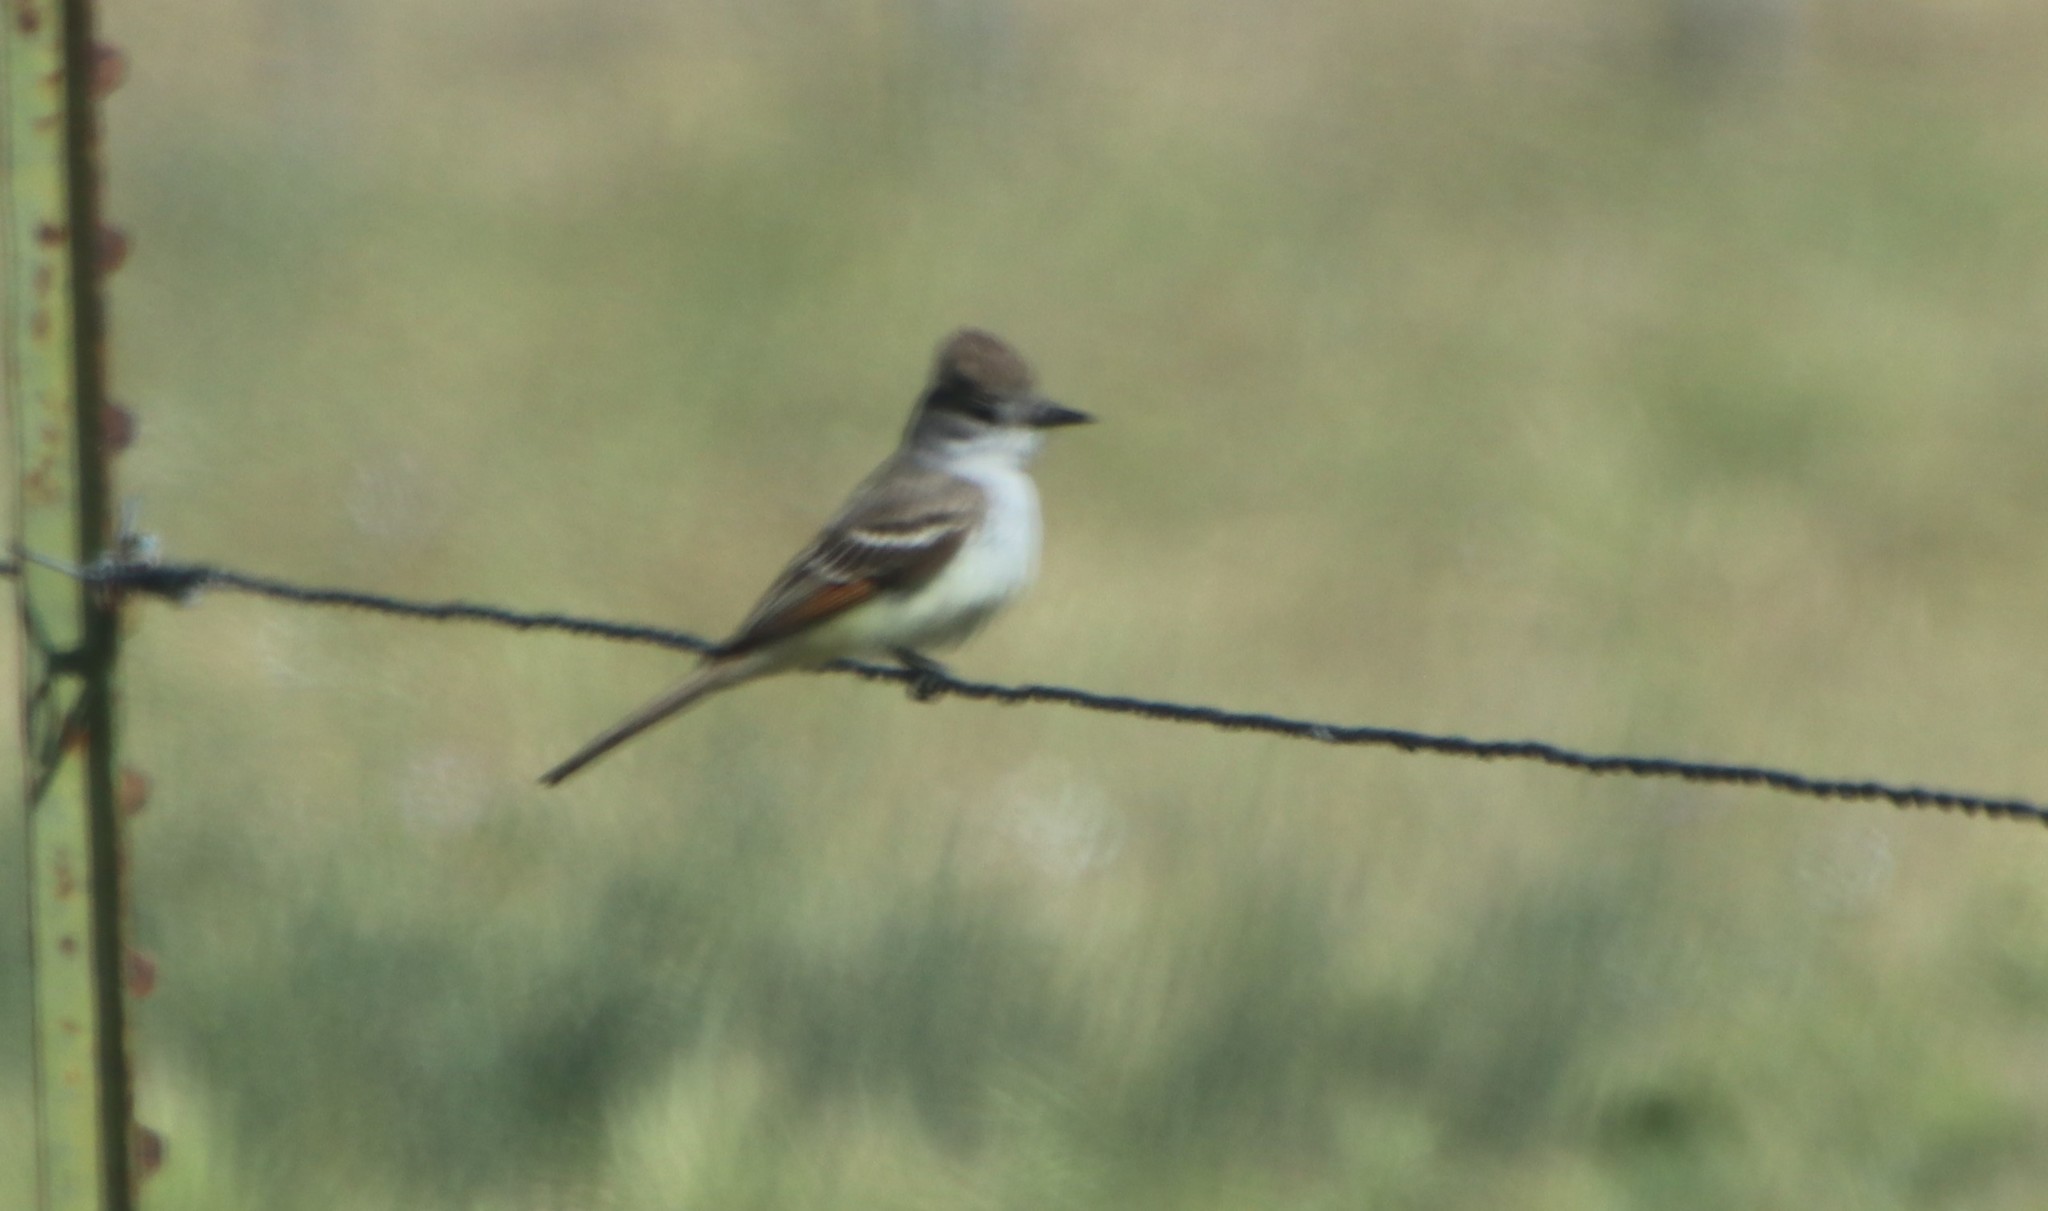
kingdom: Animalia
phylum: Chordata
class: Aves
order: Passeriformes
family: Tyrannidae
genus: Myiarchus
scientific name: Myiarchus cinerascens
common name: Ash-throated flycatcher
